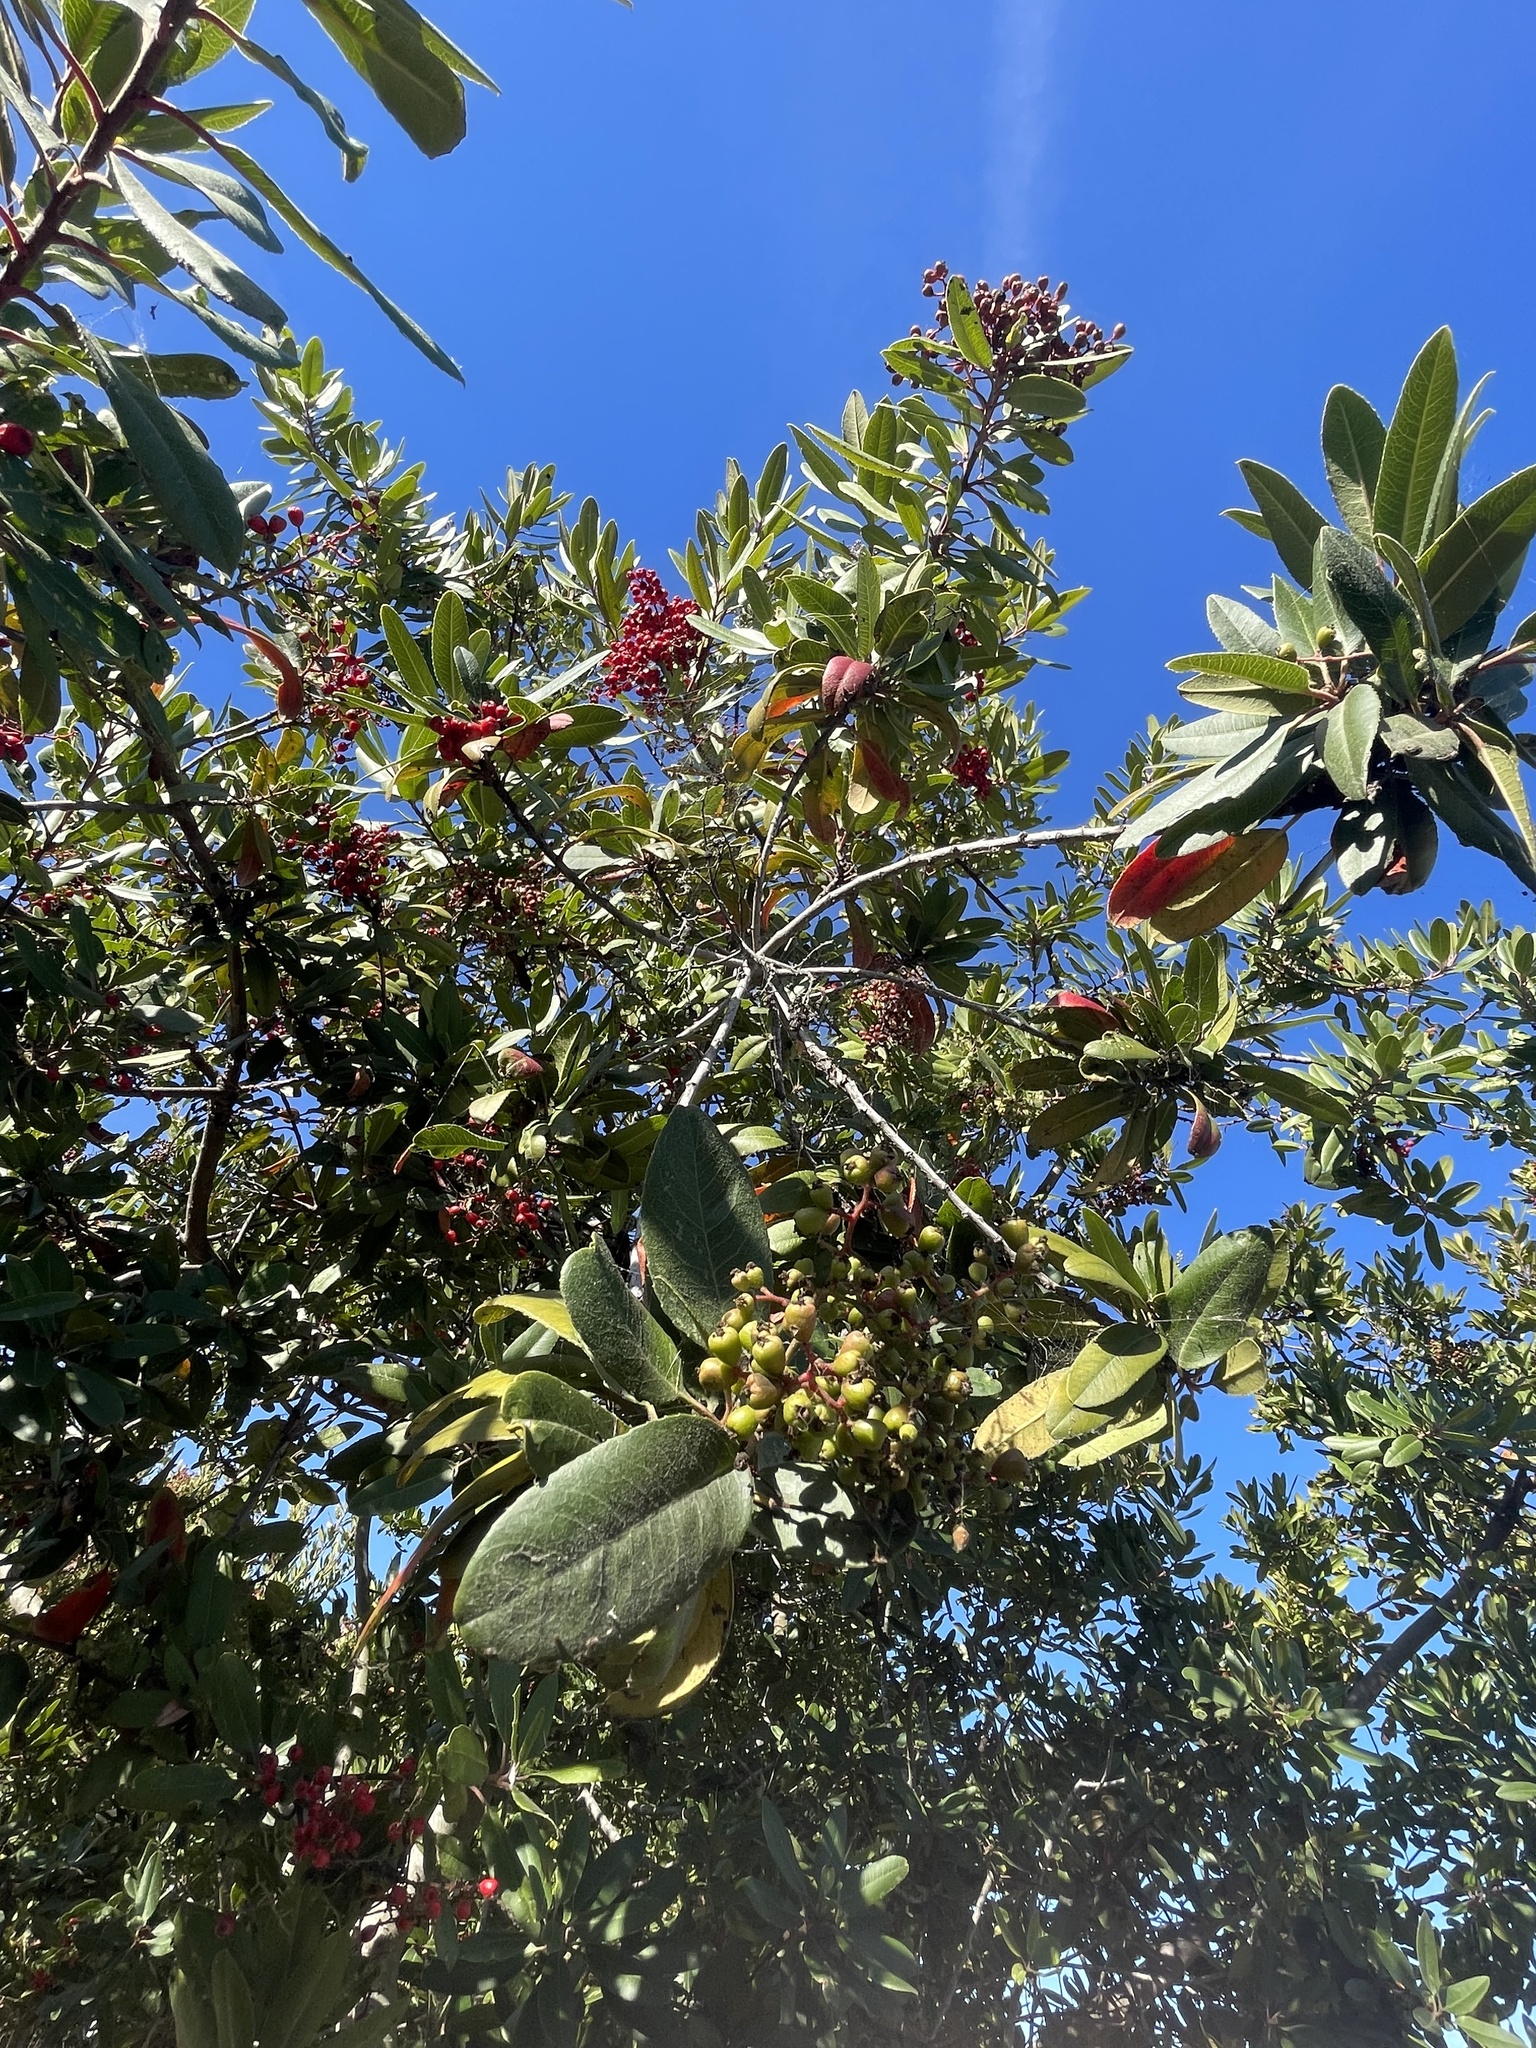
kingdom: Plantae
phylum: Tracheophyta
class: Magnoliopsida
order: Rosales
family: Rosaceae
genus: Heteromeles
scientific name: Heteromeles arbutifolia
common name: California-holly
